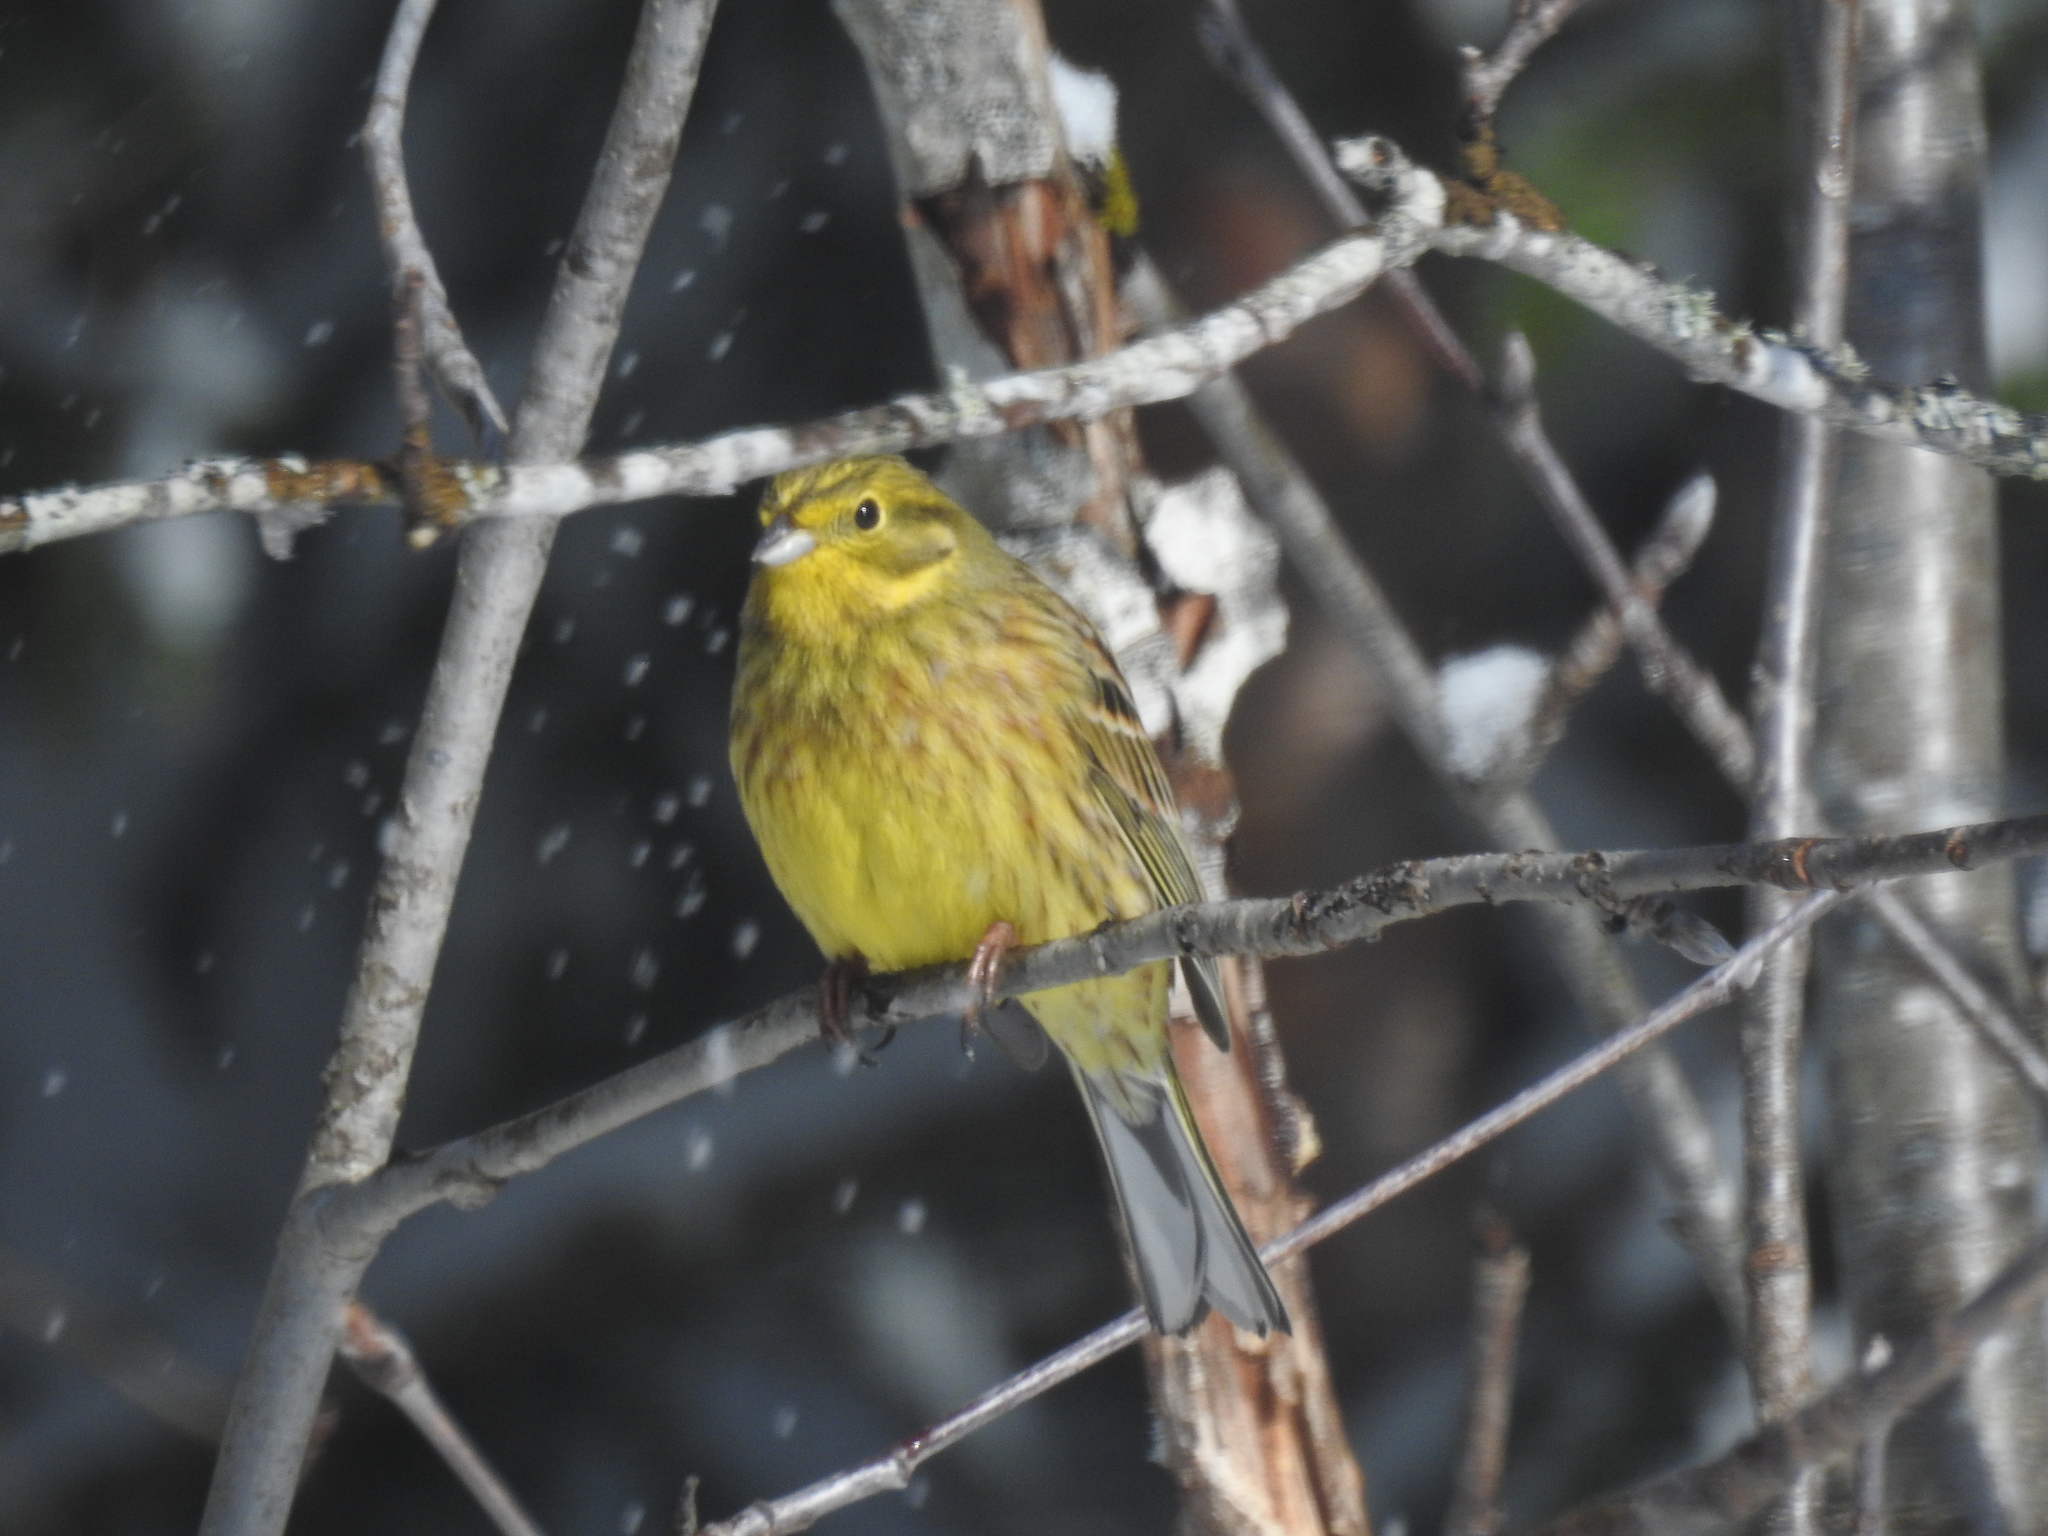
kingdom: Animalia
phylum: Chordata
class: Aves
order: Passeriformes
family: Emberizidae
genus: Emberiza
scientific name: Emberiza citrinella
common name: Yellowhammer
